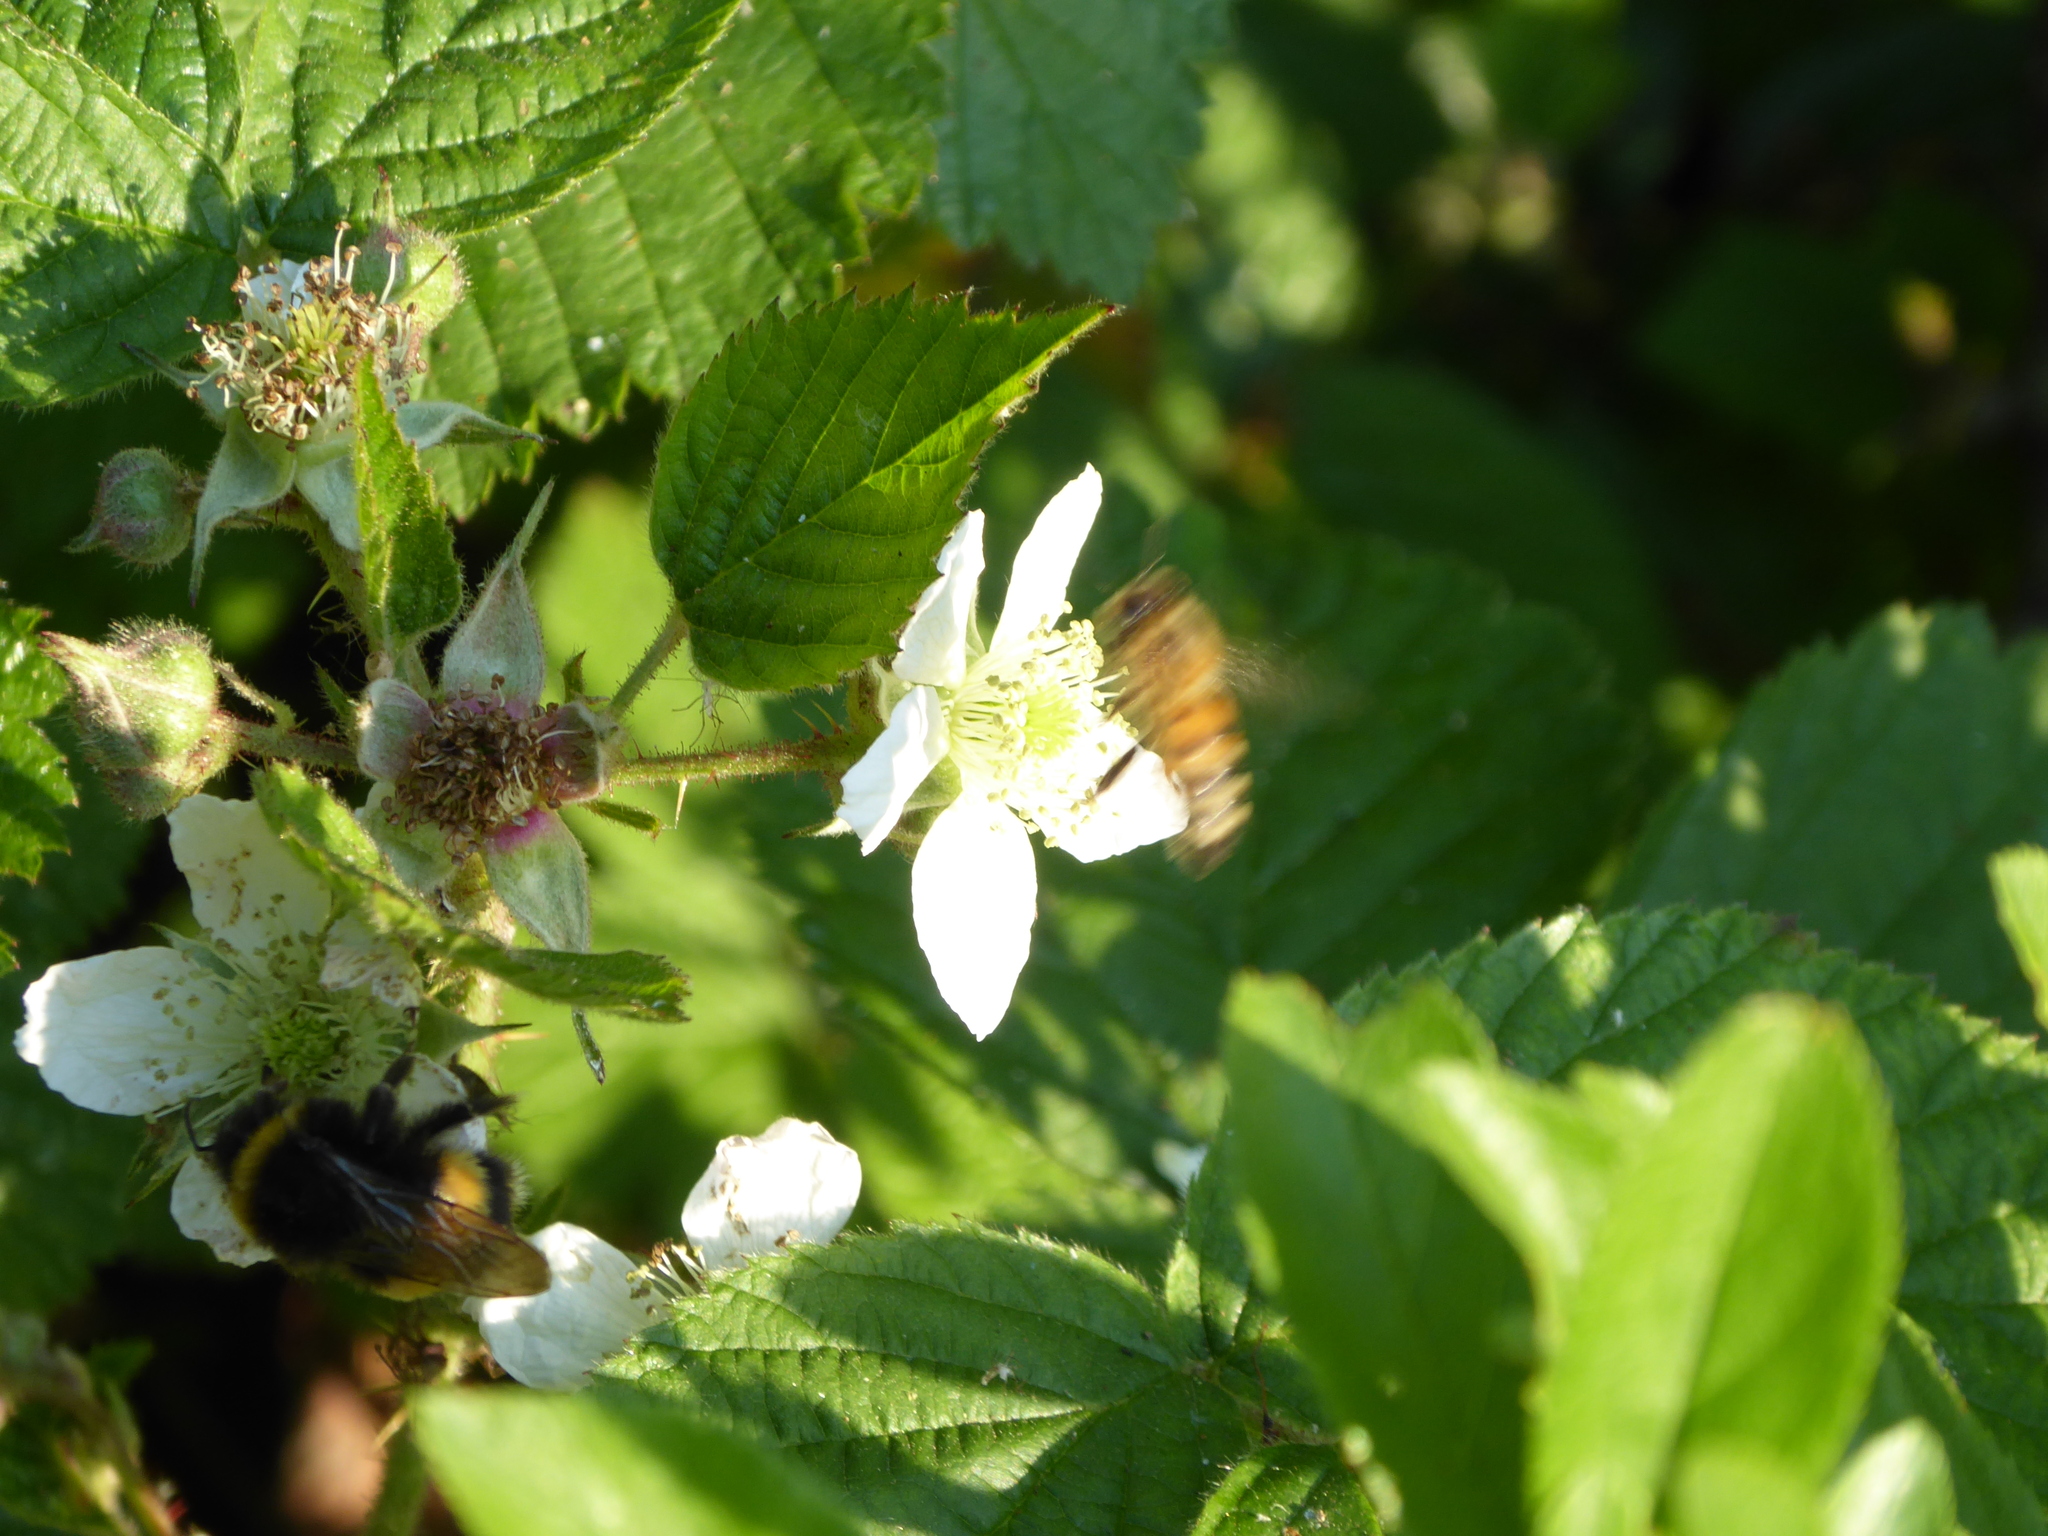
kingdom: Animalia
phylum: Arthropoda
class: Insecta
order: Hymenoptera
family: Apidae
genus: Apis
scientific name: Apis mellifera
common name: Honey bee
